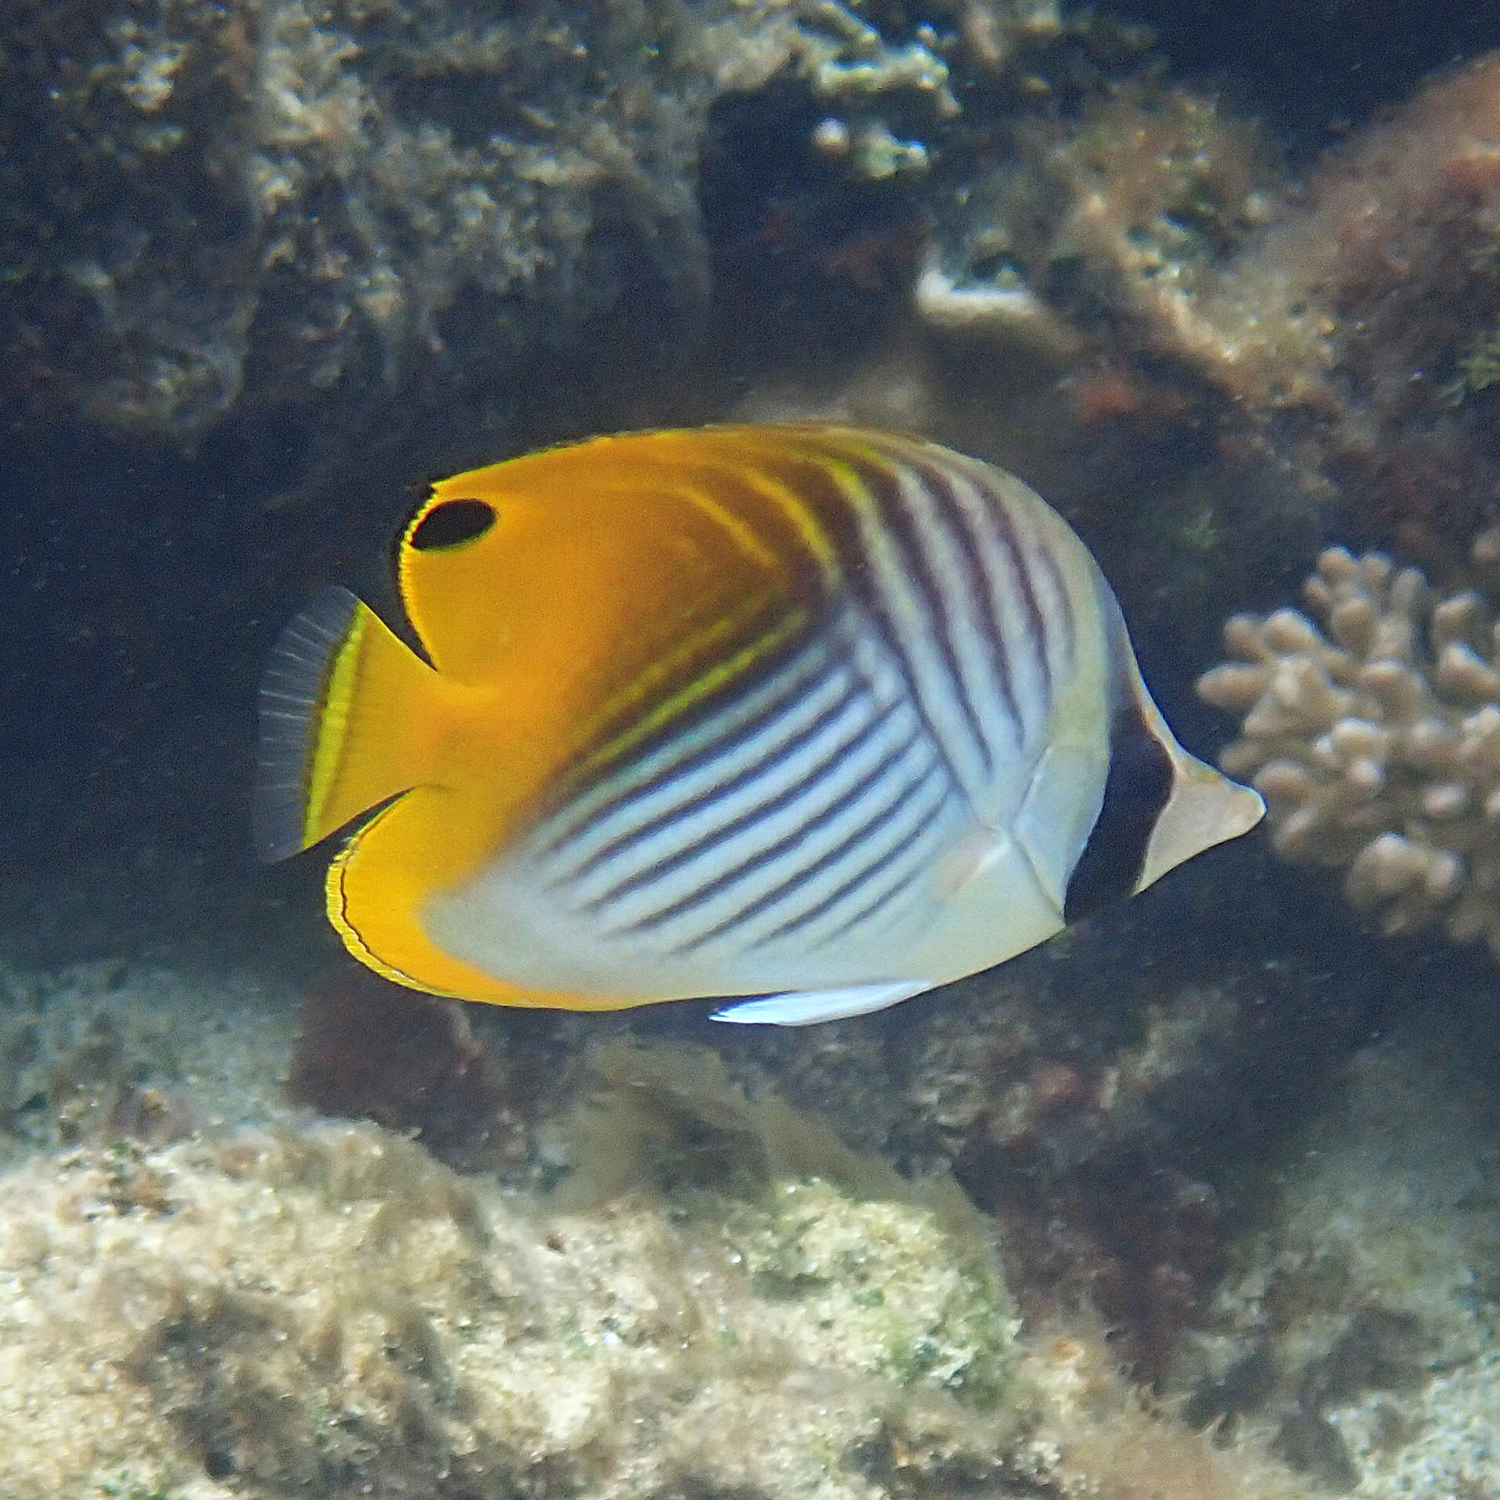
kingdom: Animalia
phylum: Chordata
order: Perciformes
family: Chaetodontidae
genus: Chaetodon
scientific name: Chaetodon auriga
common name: Threadfin butterflyfish
